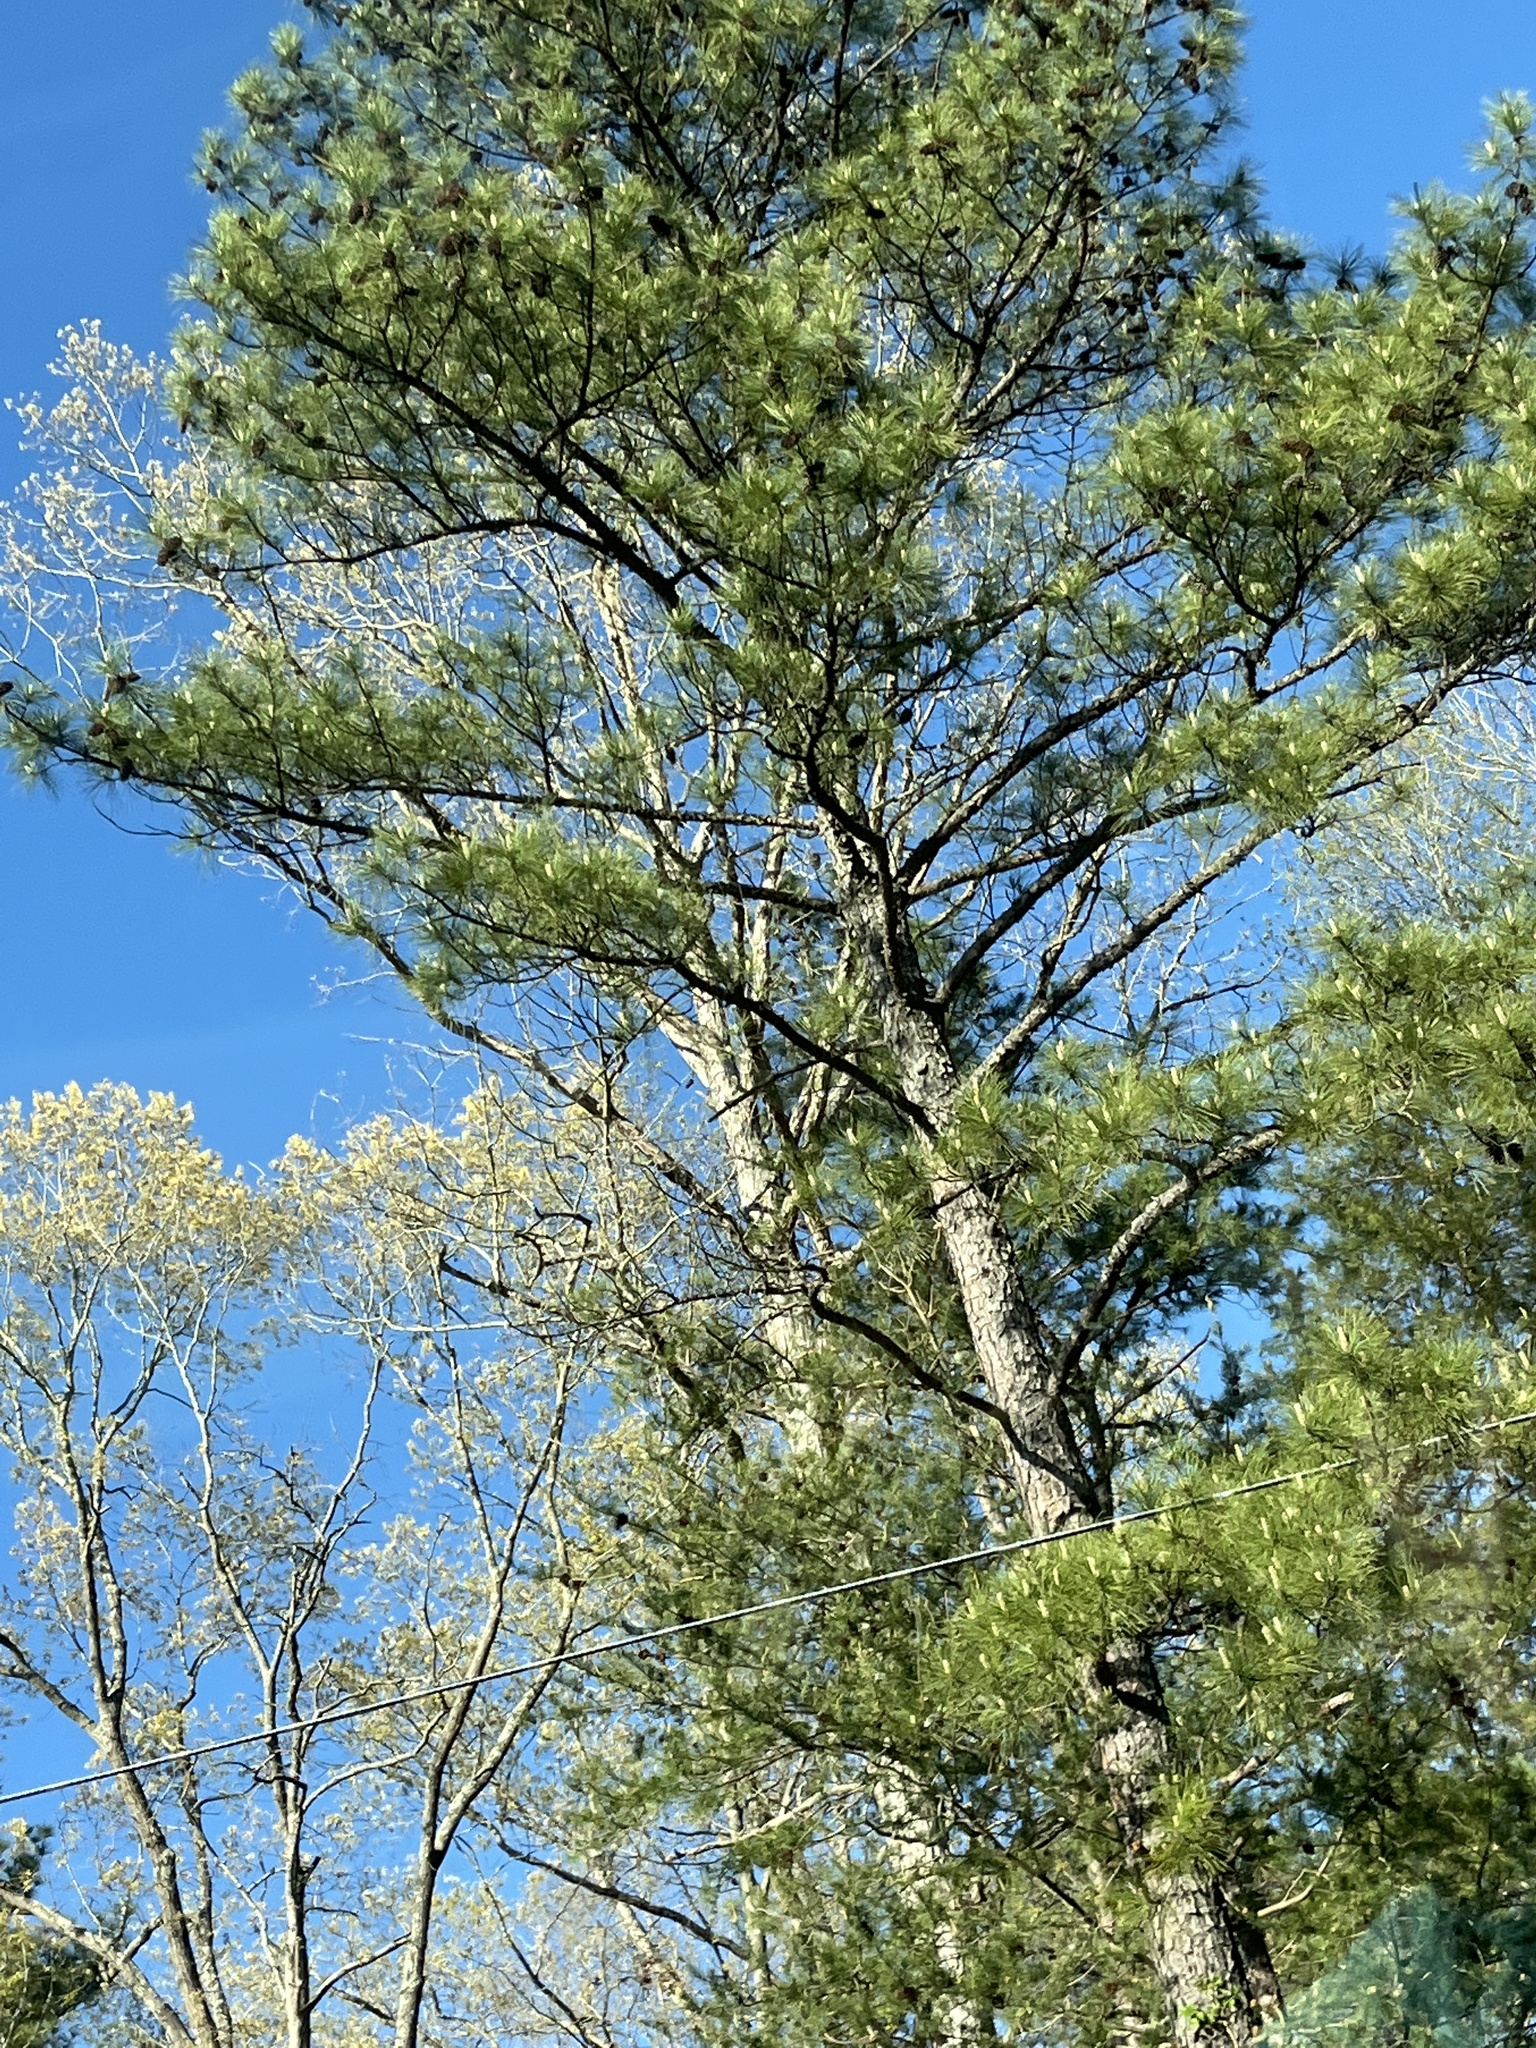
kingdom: Plantae
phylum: Tracheophyta
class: Pinopsida
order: Pinales
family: Pinaceae
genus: Pinus
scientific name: Pinus taeda
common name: Loblolly pine
